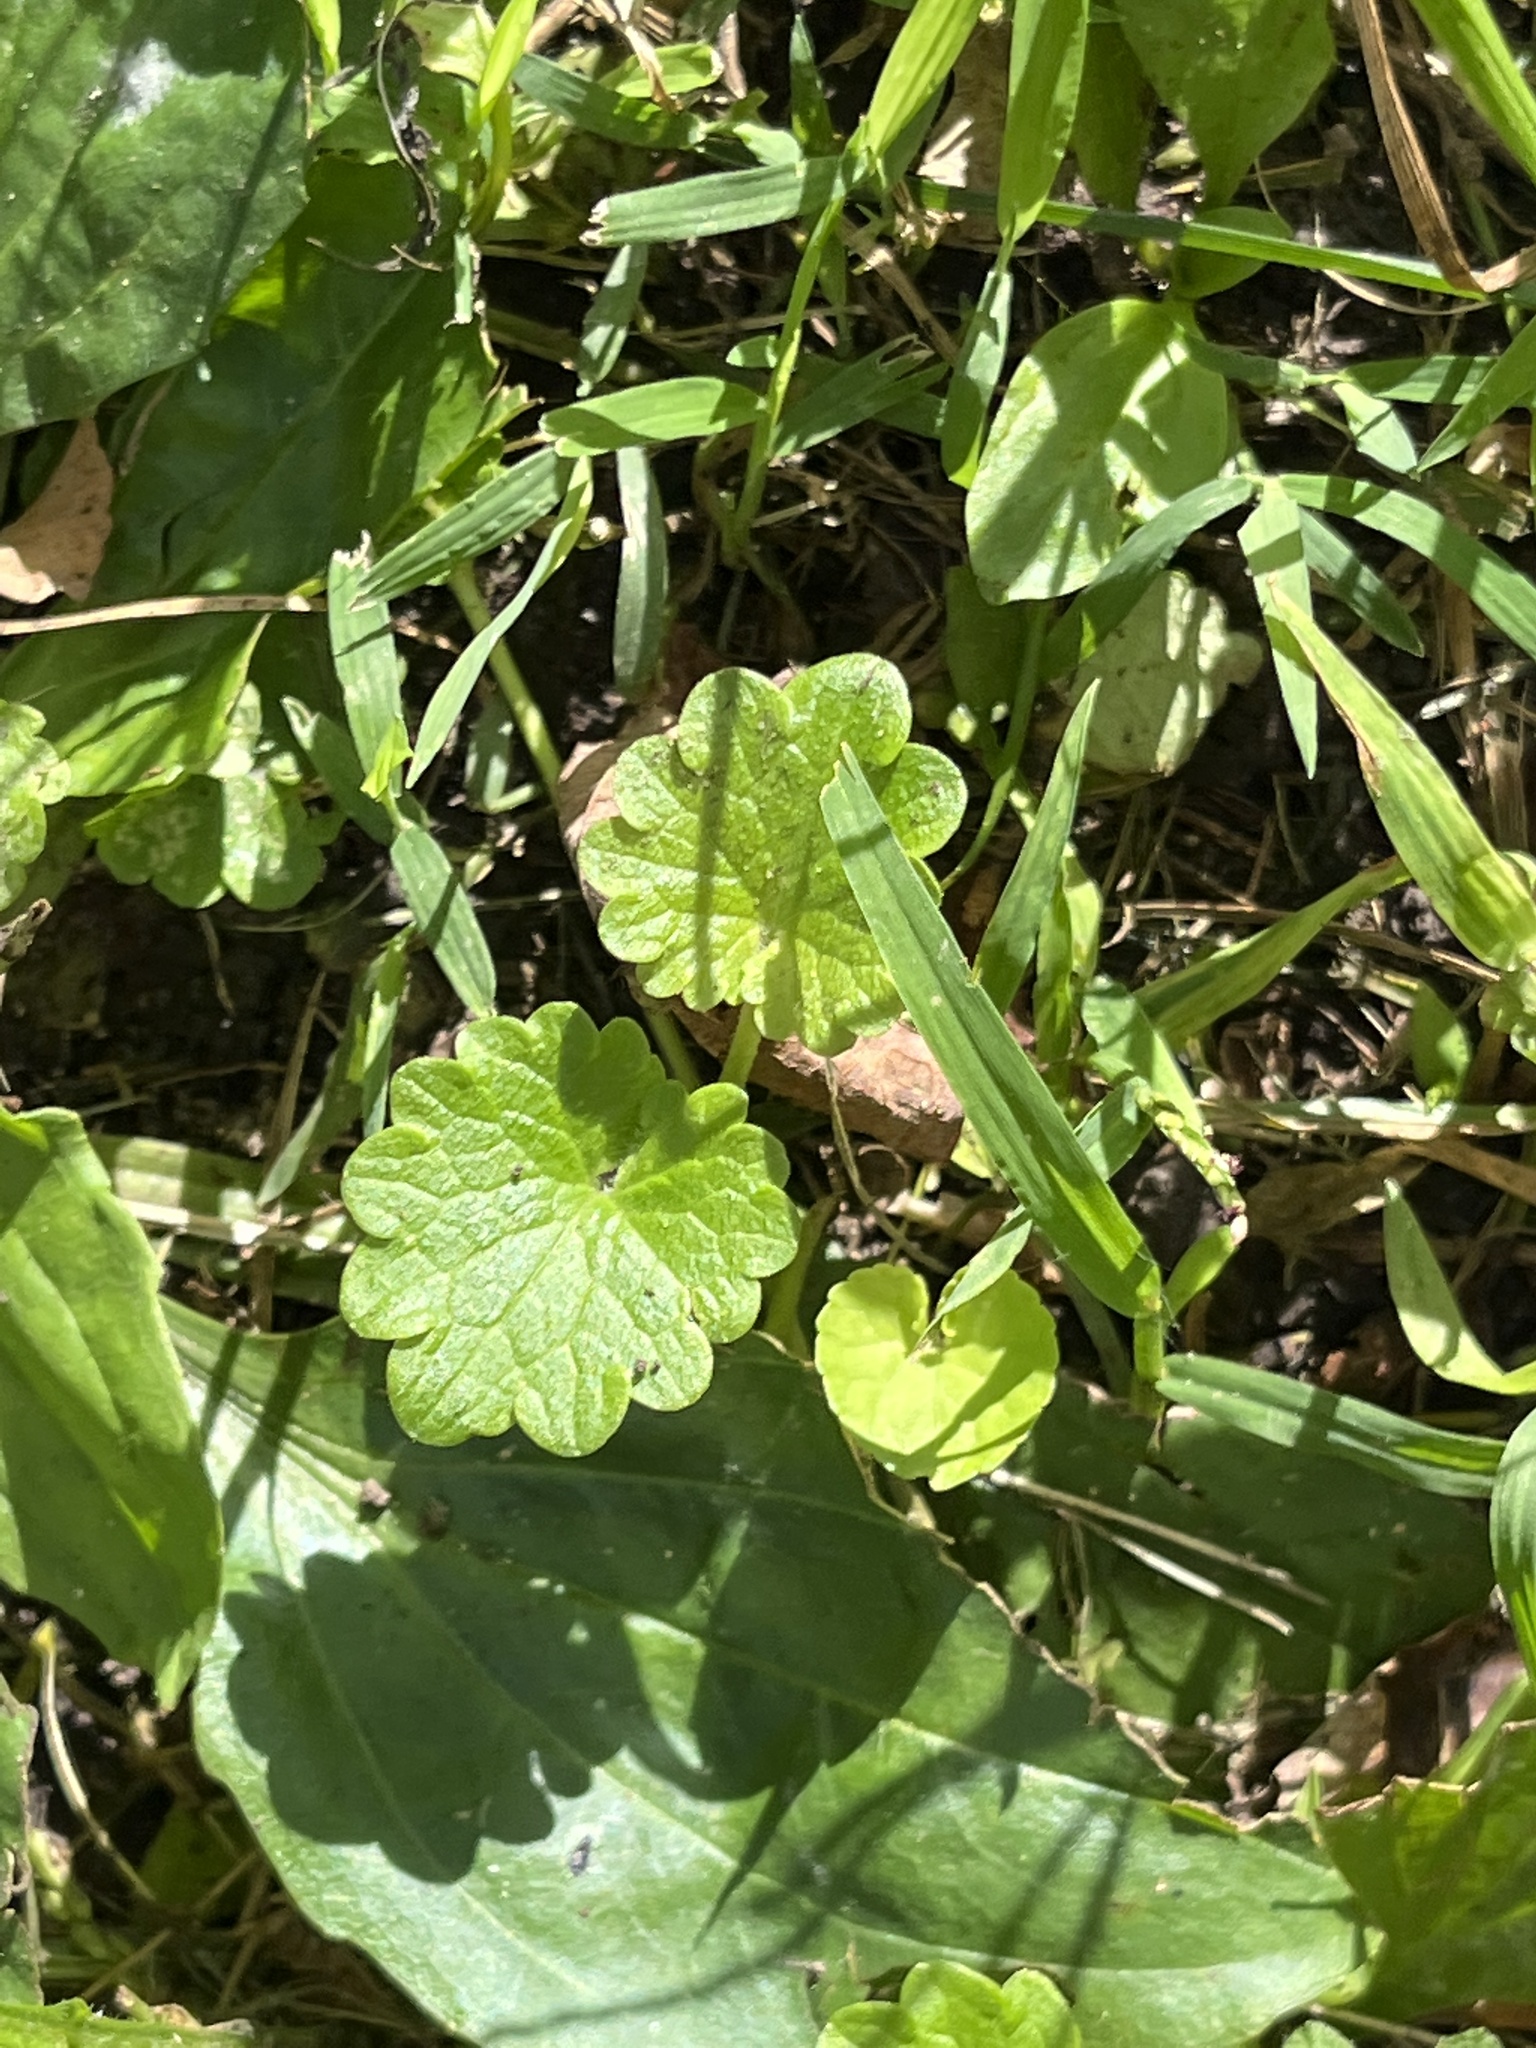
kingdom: Plantae
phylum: Tracheophyta
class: Magnoliopsida
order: Lamiales
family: Lamiaceae
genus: Glechoma
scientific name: Glechoma hederacea
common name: Ground ivy
